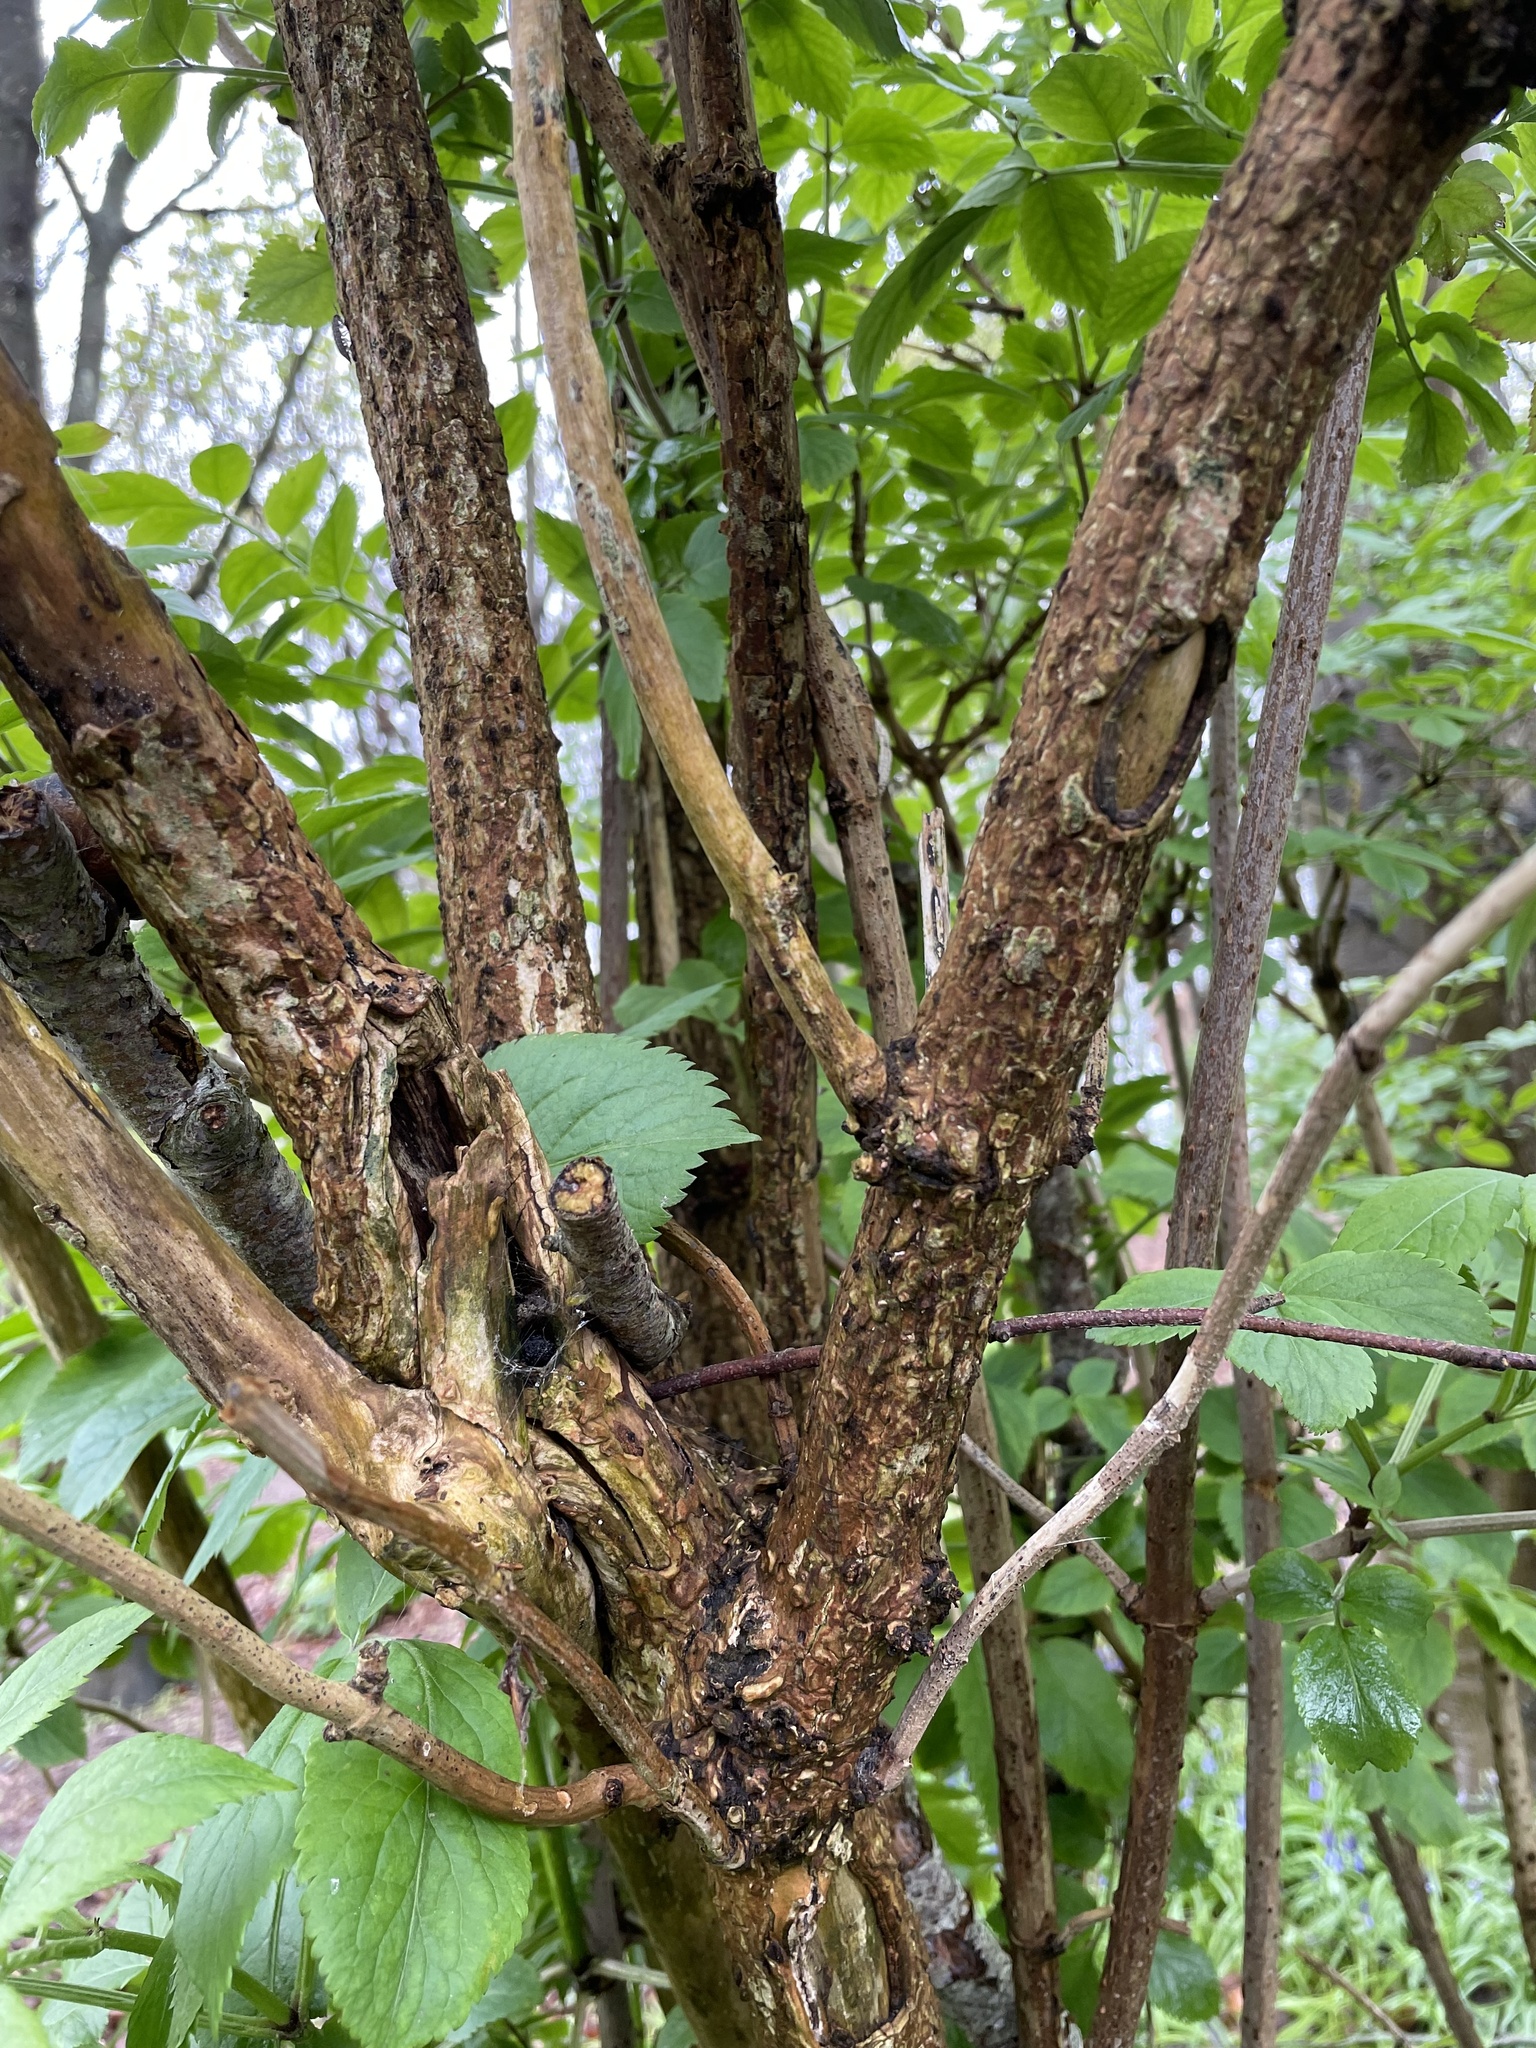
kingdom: Plantae
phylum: Tracheophyta
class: Magnoliopsida
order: Dipsacales
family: Viburnaceae
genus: Sambucus
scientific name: Sambucus nigra
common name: Elder
